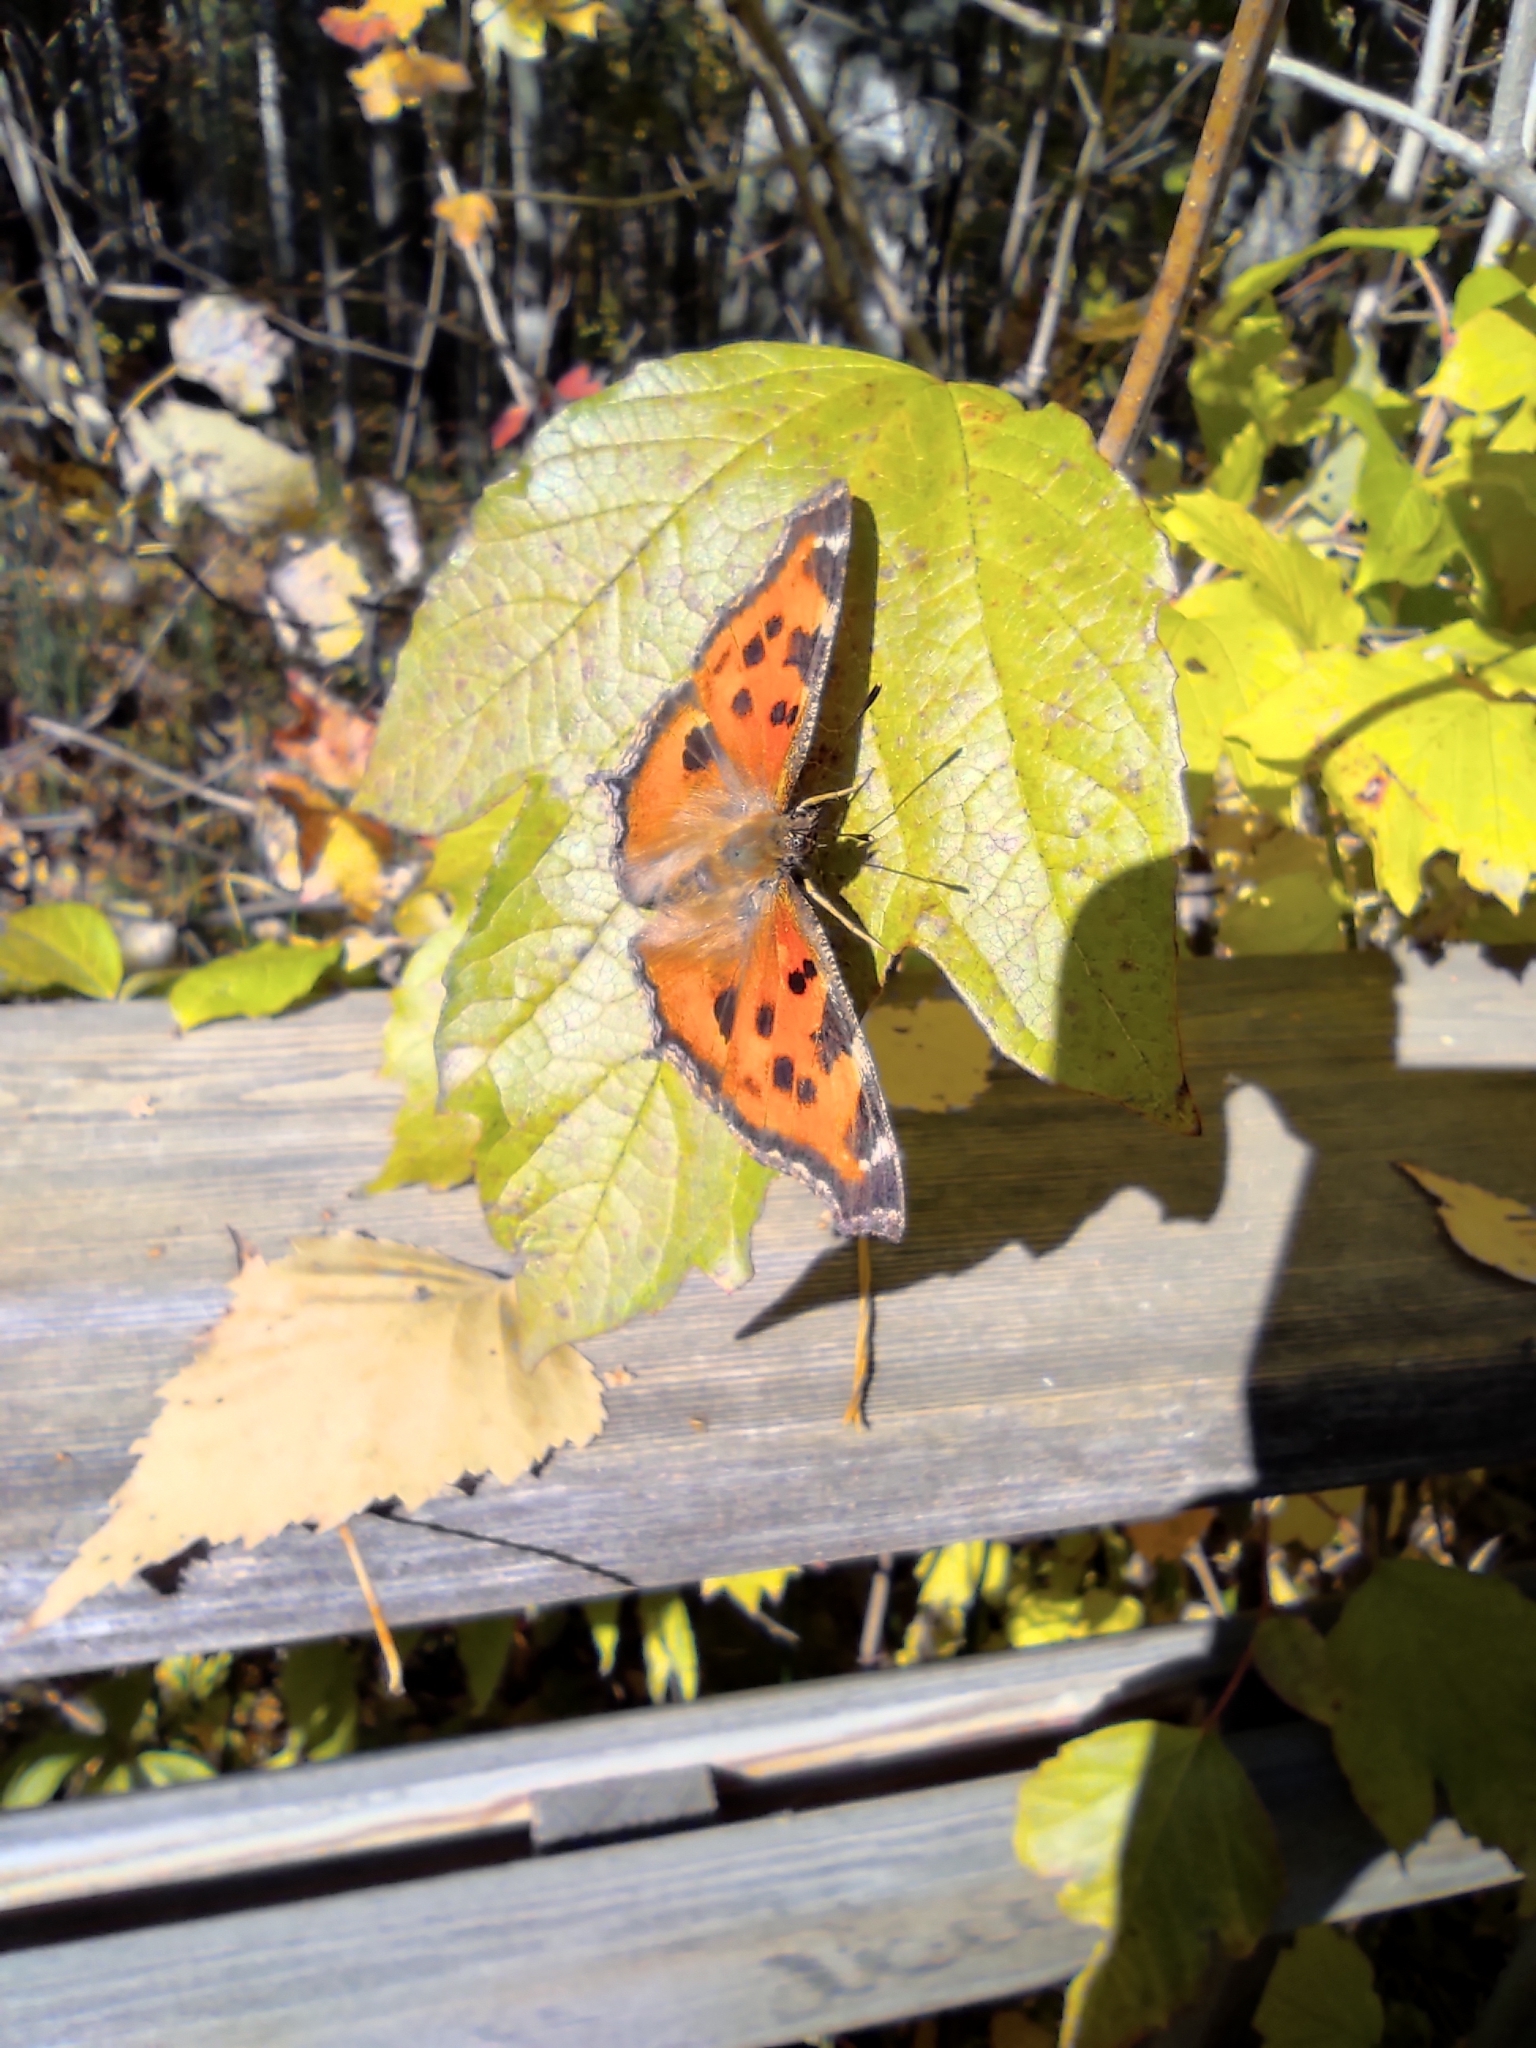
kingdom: Animalia
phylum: Arthropoda
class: Insecta
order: Lepidoptera
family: Nymphalidae
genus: Nymphalis
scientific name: Nymphalis xanthomelas
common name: Scarce tortoiseshell
